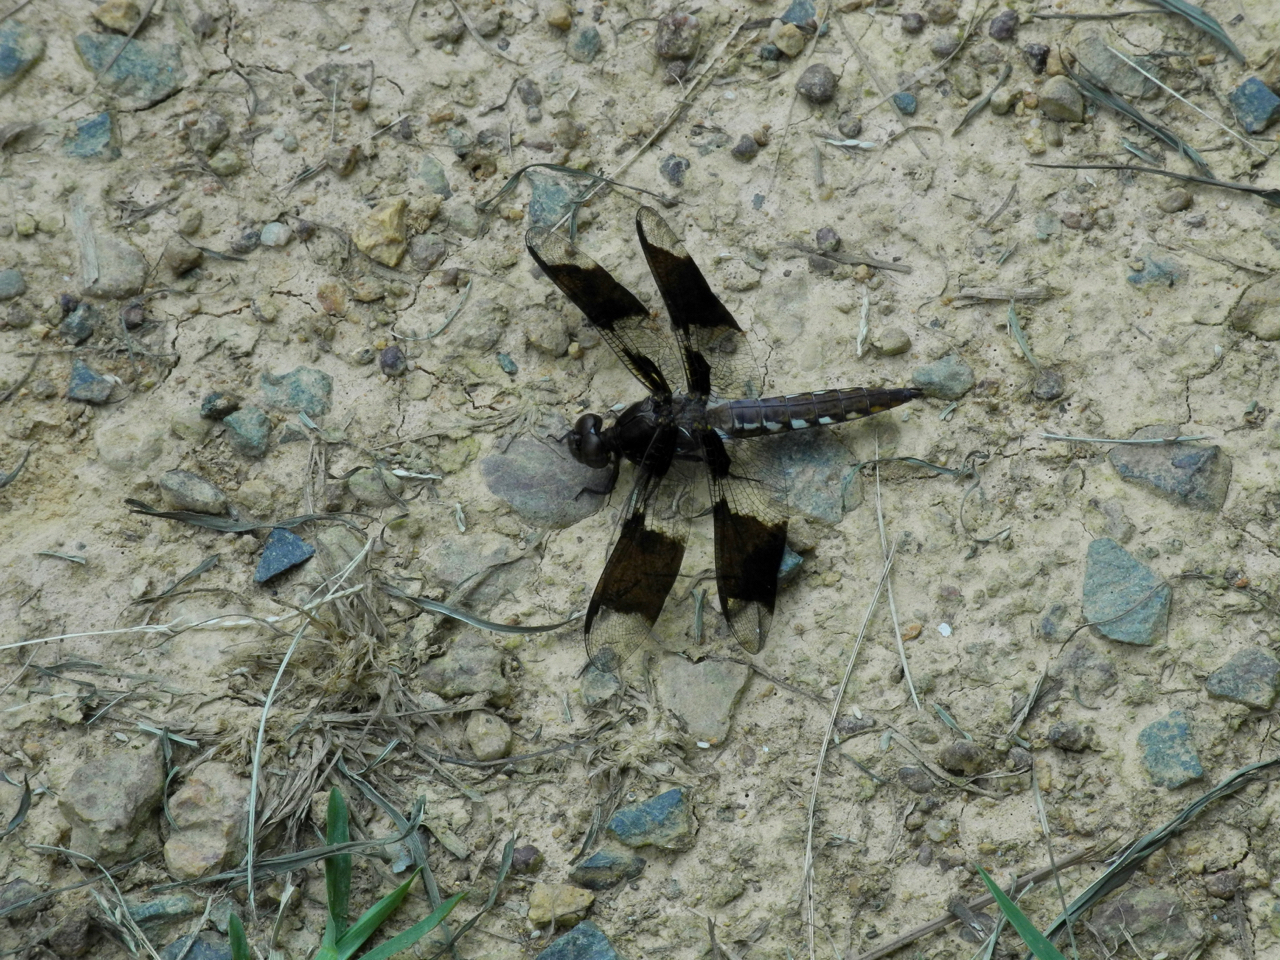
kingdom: Animalia
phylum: Arthropoda
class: Insecta
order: Odonata
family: Libellulidae
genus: Plathemis
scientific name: Plathemis lydia
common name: Common whitetail
